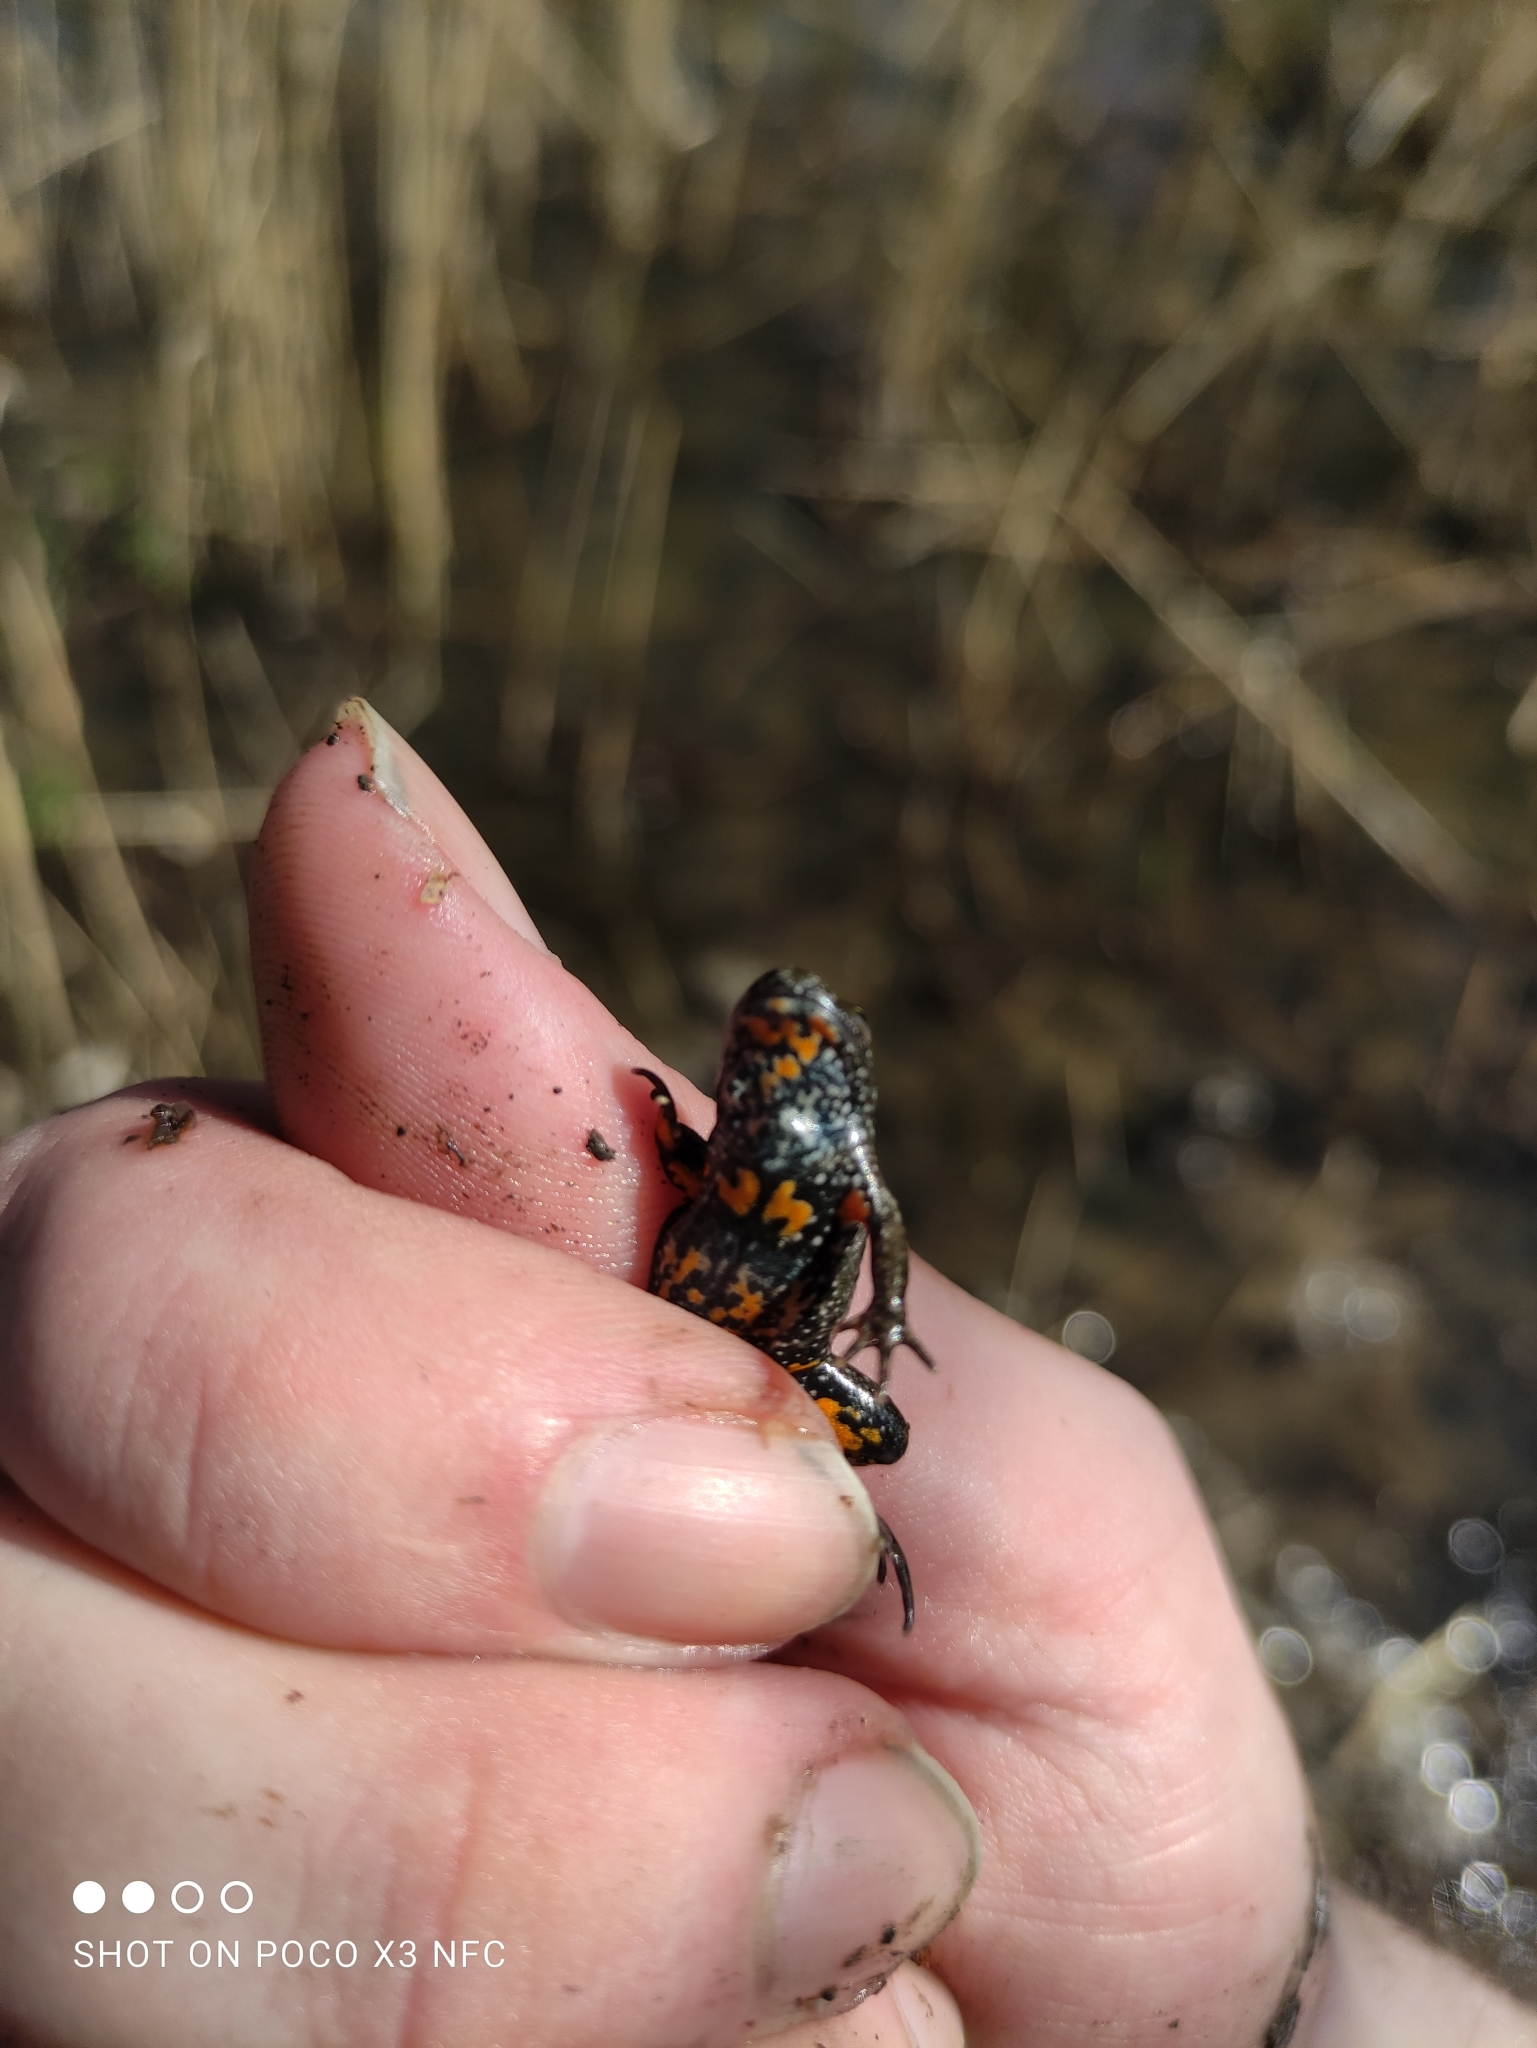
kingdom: Animalia
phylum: Chordata
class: Amphibia
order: Anura
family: Bombinatoridae
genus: Bombina
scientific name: Bombina bombina
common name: Fire-bellied toad
